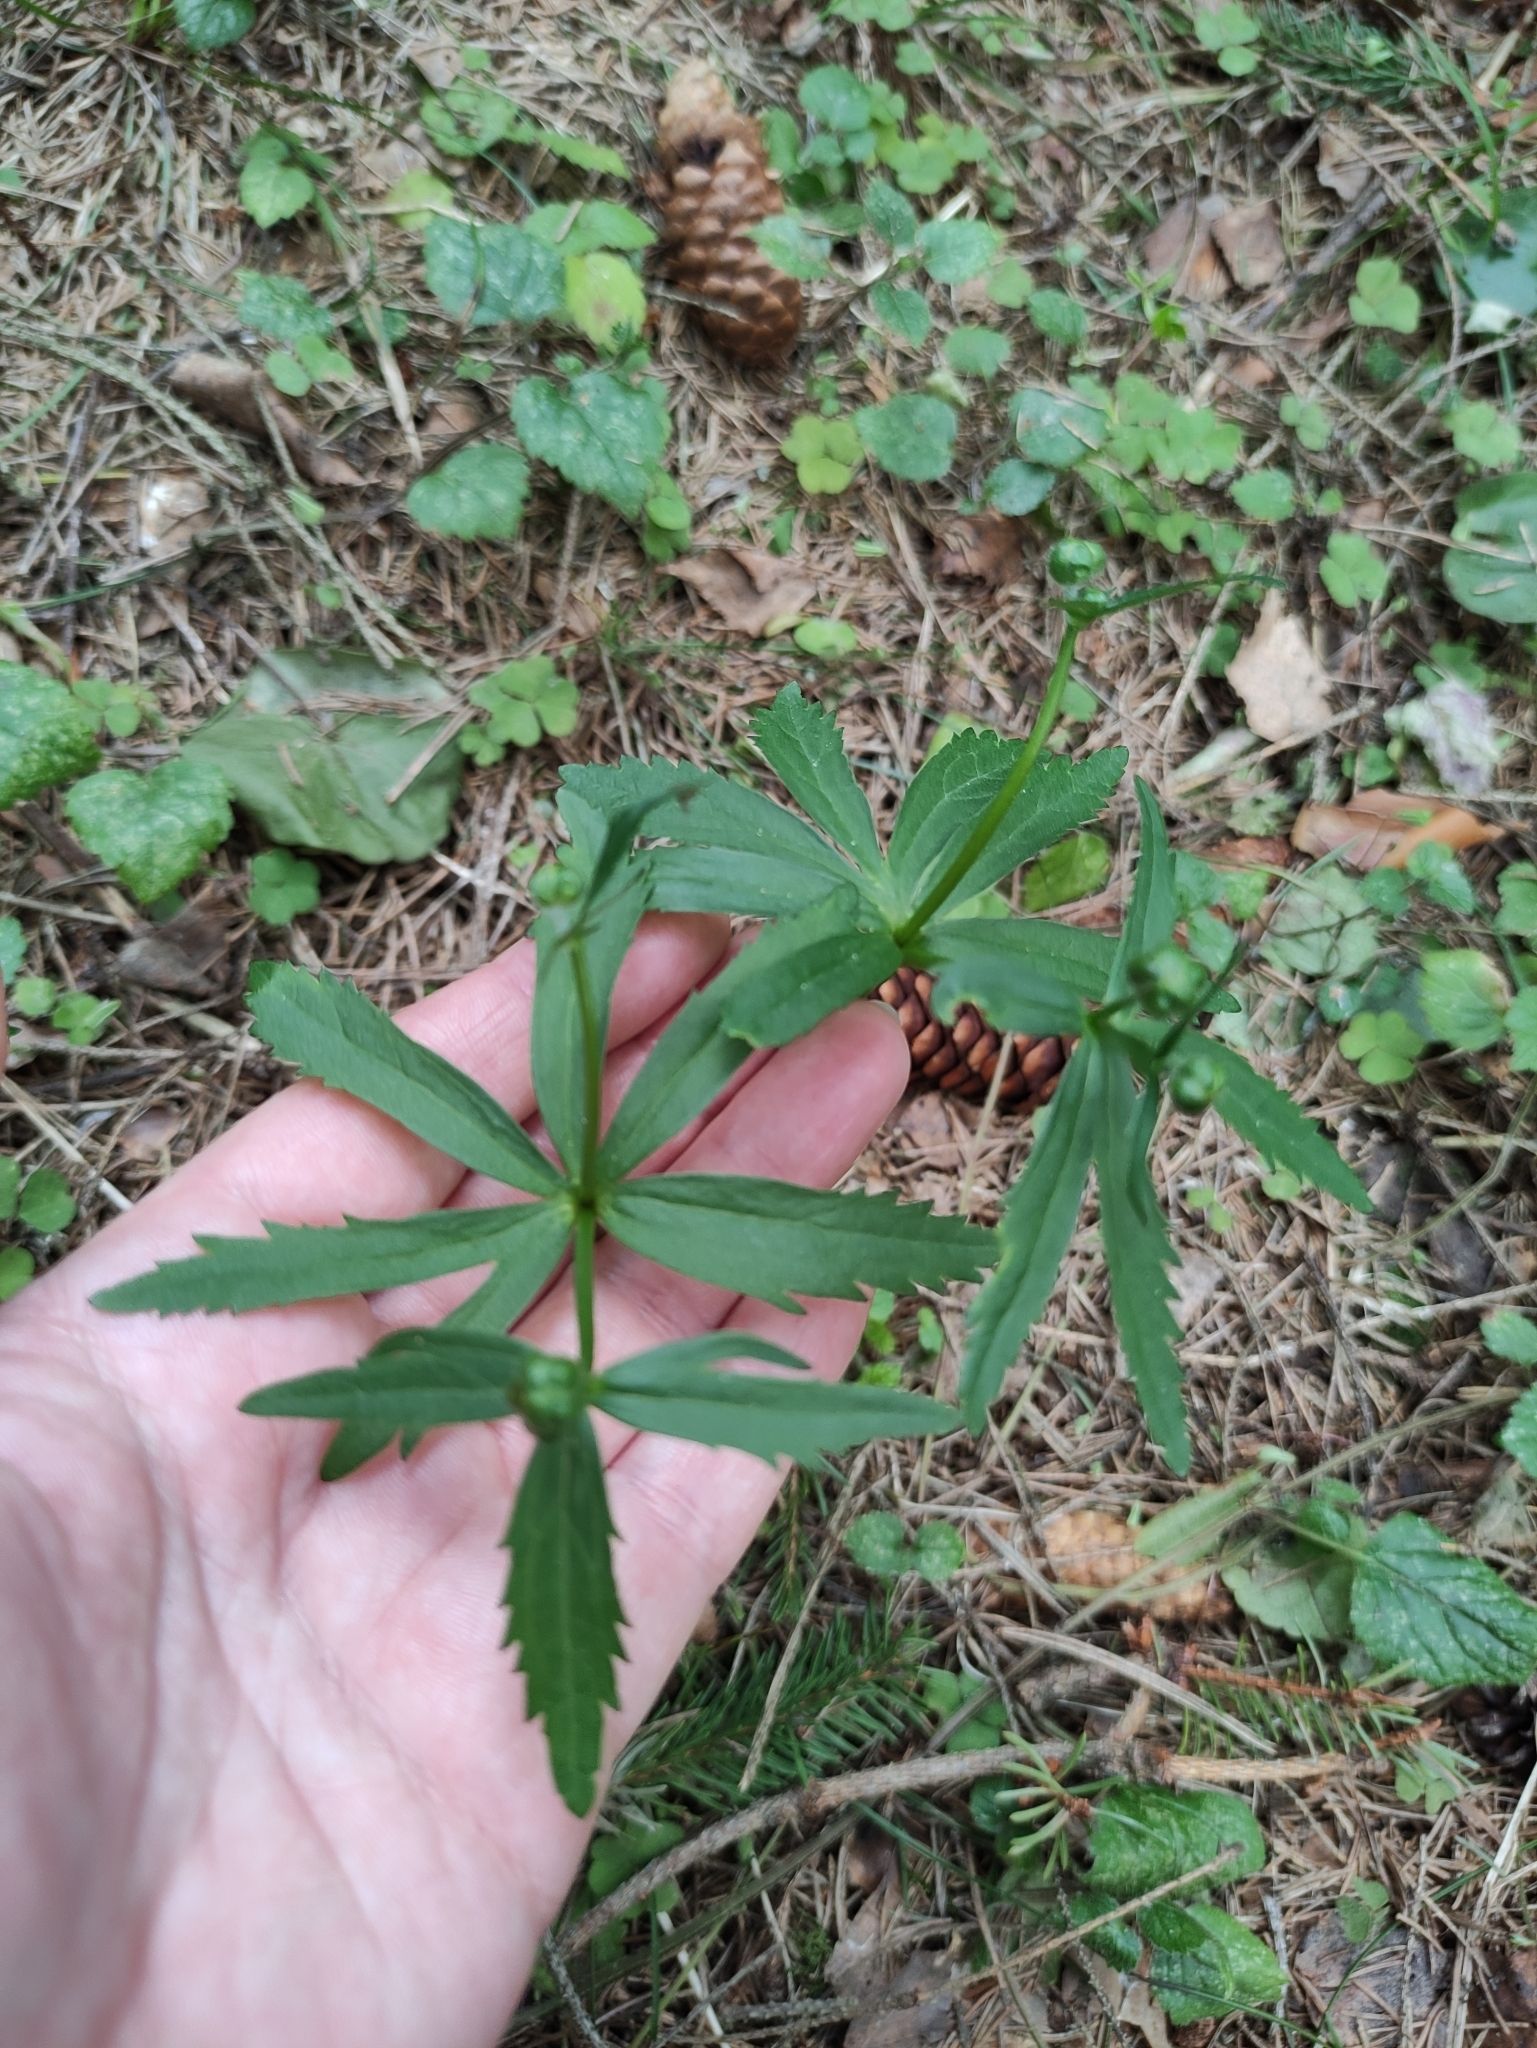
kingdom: Plantae
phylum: Tracheophyta
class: Magnoliopsida
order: Ranunculales
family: Ranunculaceae
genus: Ranunculus
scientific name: Ranunculus cassubicus
